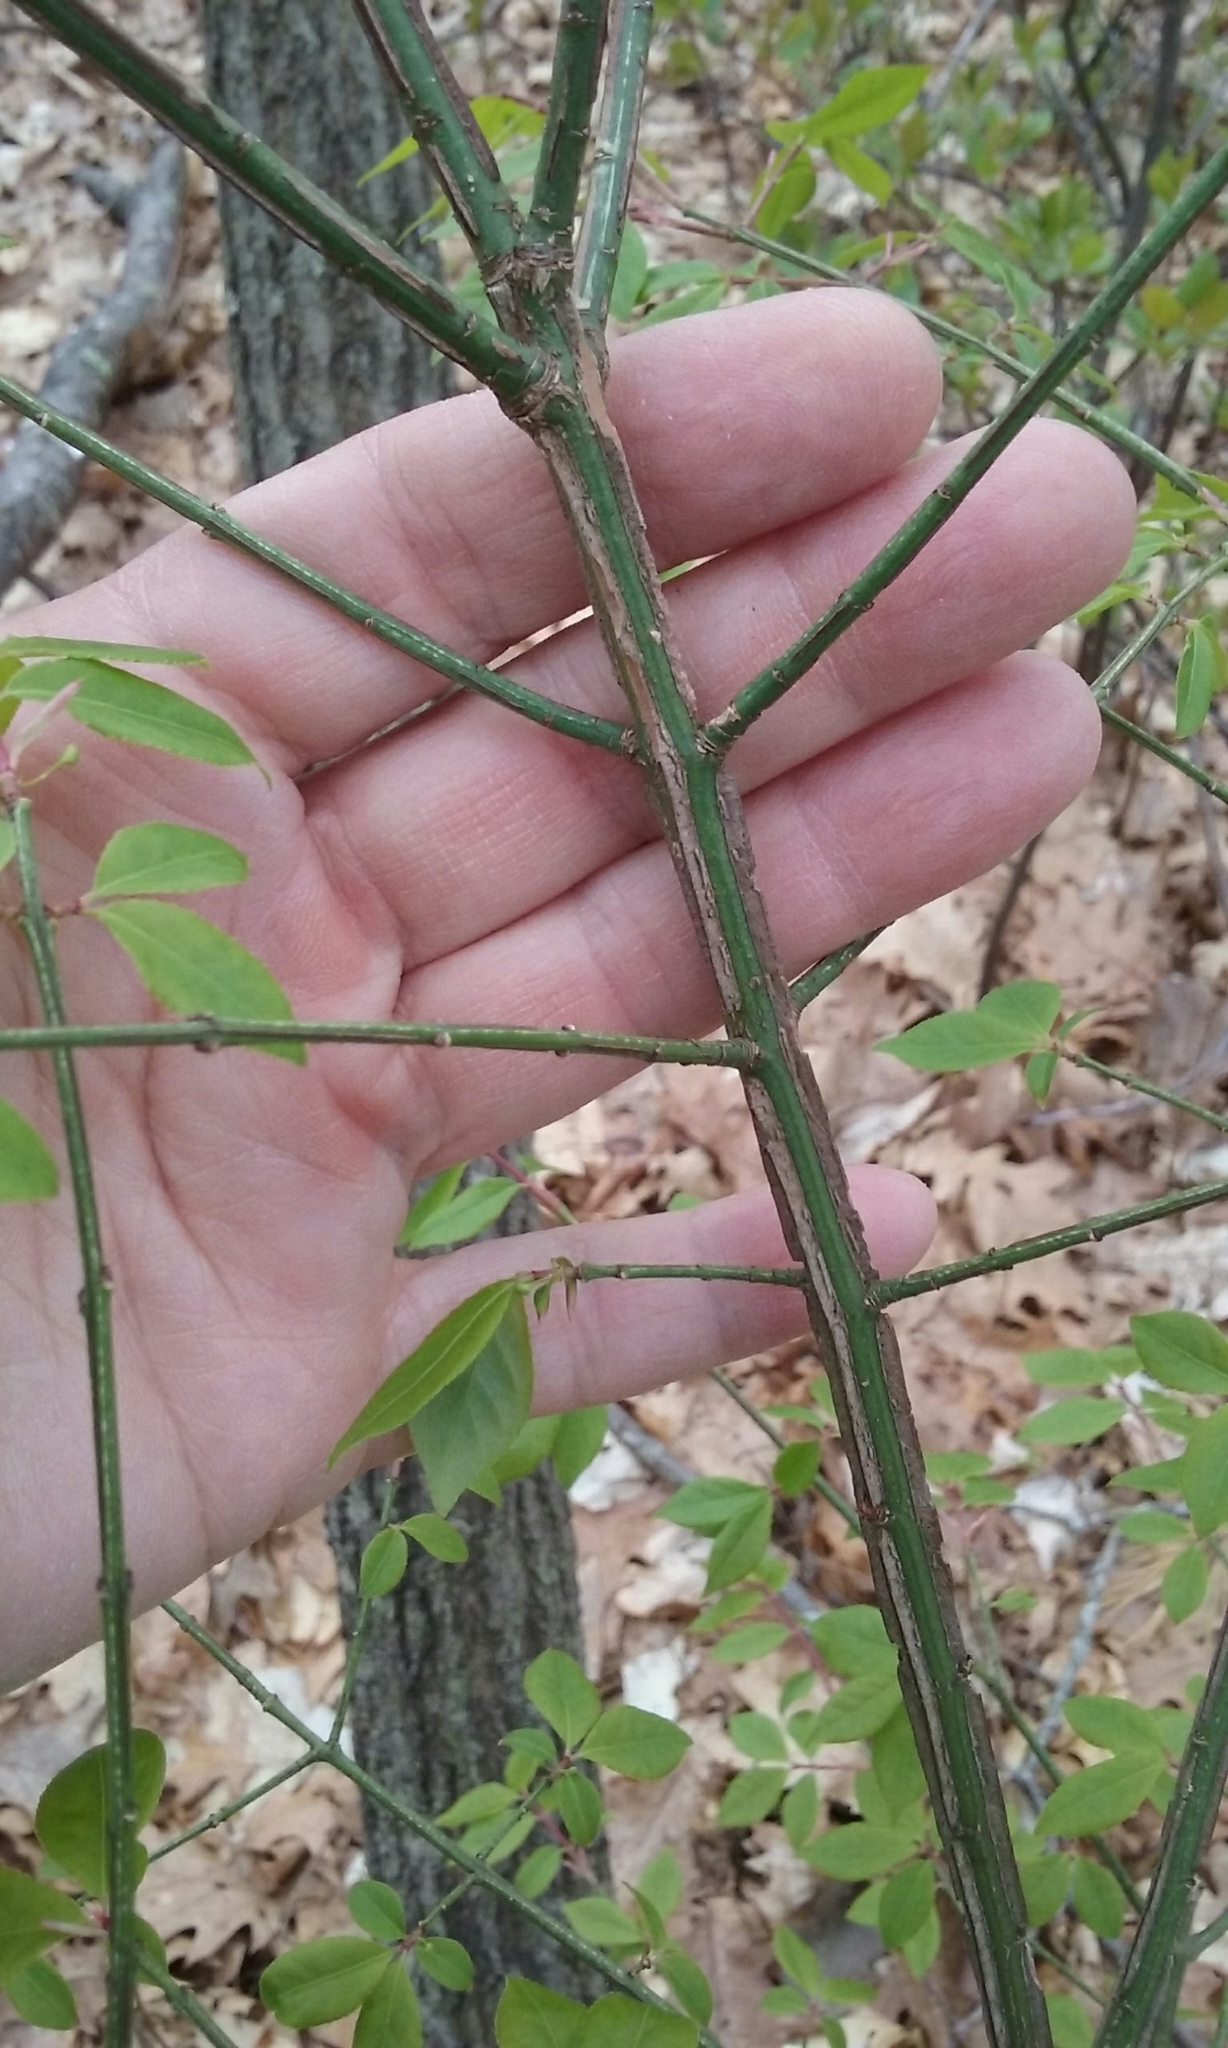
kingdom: Plantae
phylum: Tracheophyta
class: Magnoliopsida
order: Celastrales
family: Celastraceae
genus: Euonymus
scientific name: Euonymus alatus
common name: Winged euonymus
